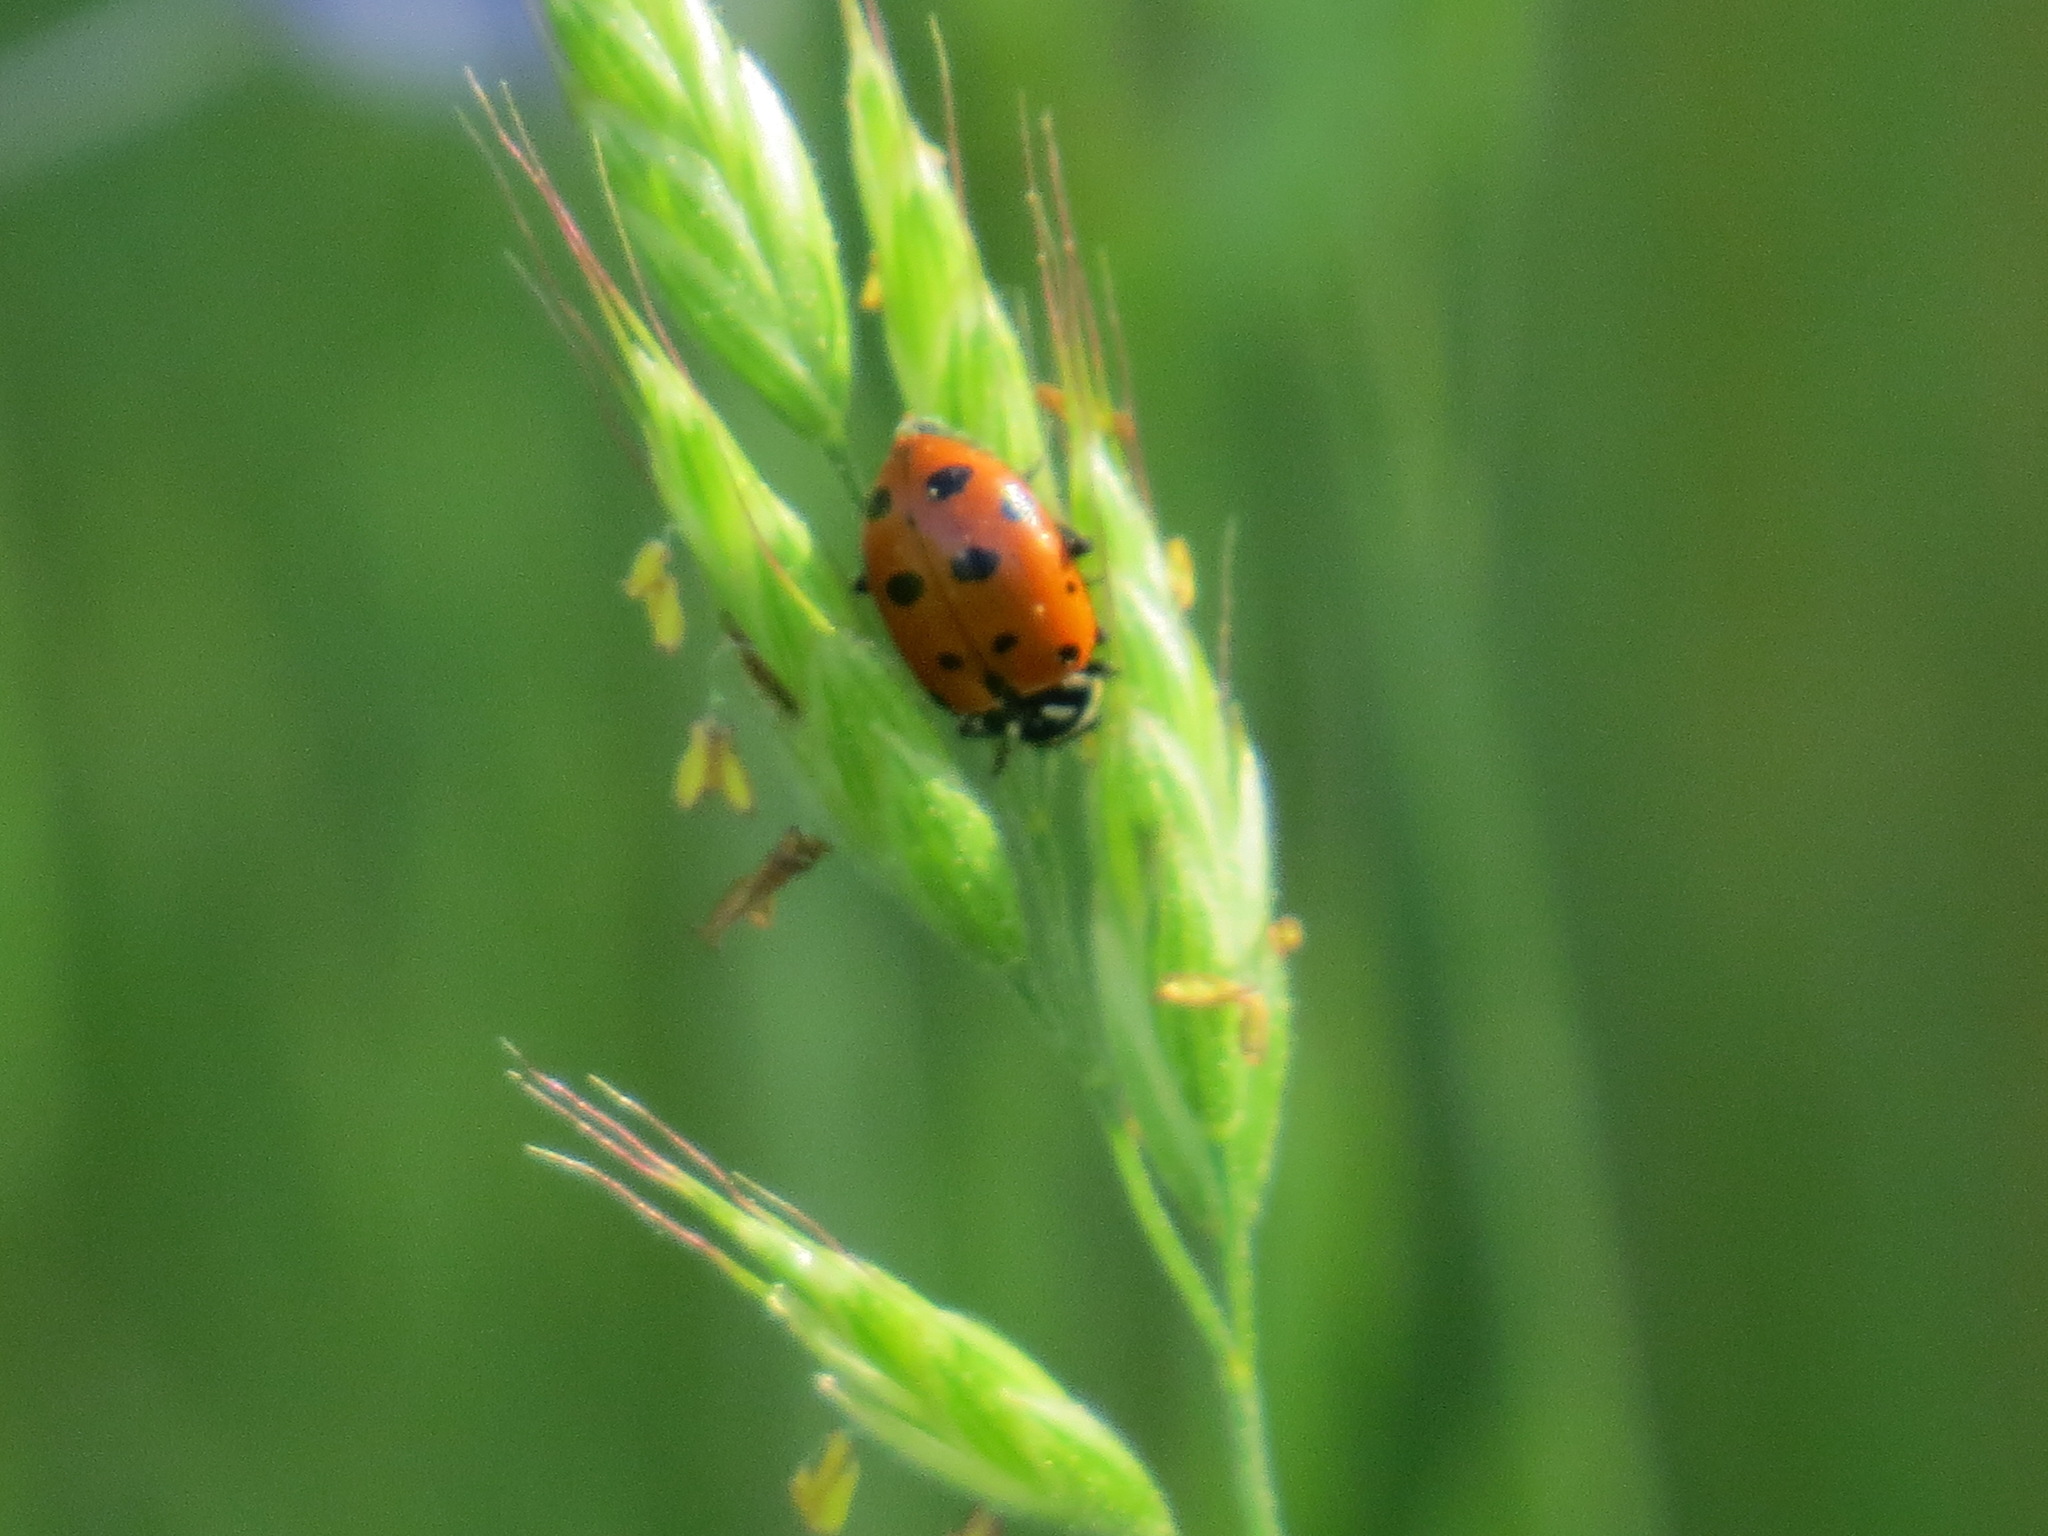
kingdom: Animalia
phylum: Arthropoda
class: Insecta
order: Coleoptera
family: Coccinellidae
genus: Hippodamia
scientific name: Hippodamia convergens
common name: Convergent lady beetle
